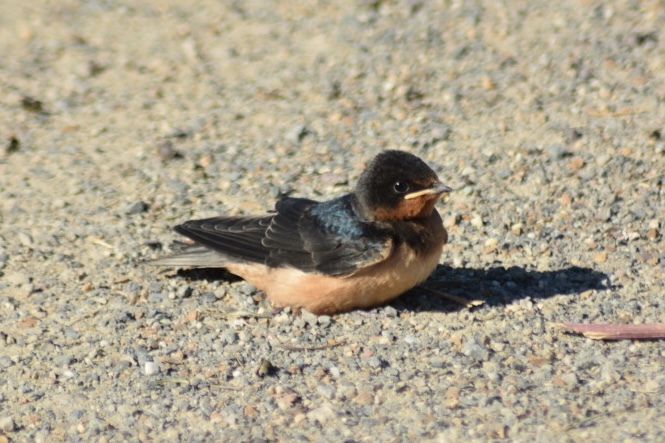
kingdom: Animalia
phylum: Chordata
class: Aves
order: Passeriformes
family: Hirundinidae
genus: Hirundo
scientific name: Hirundo rustica
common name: Barn swallow
